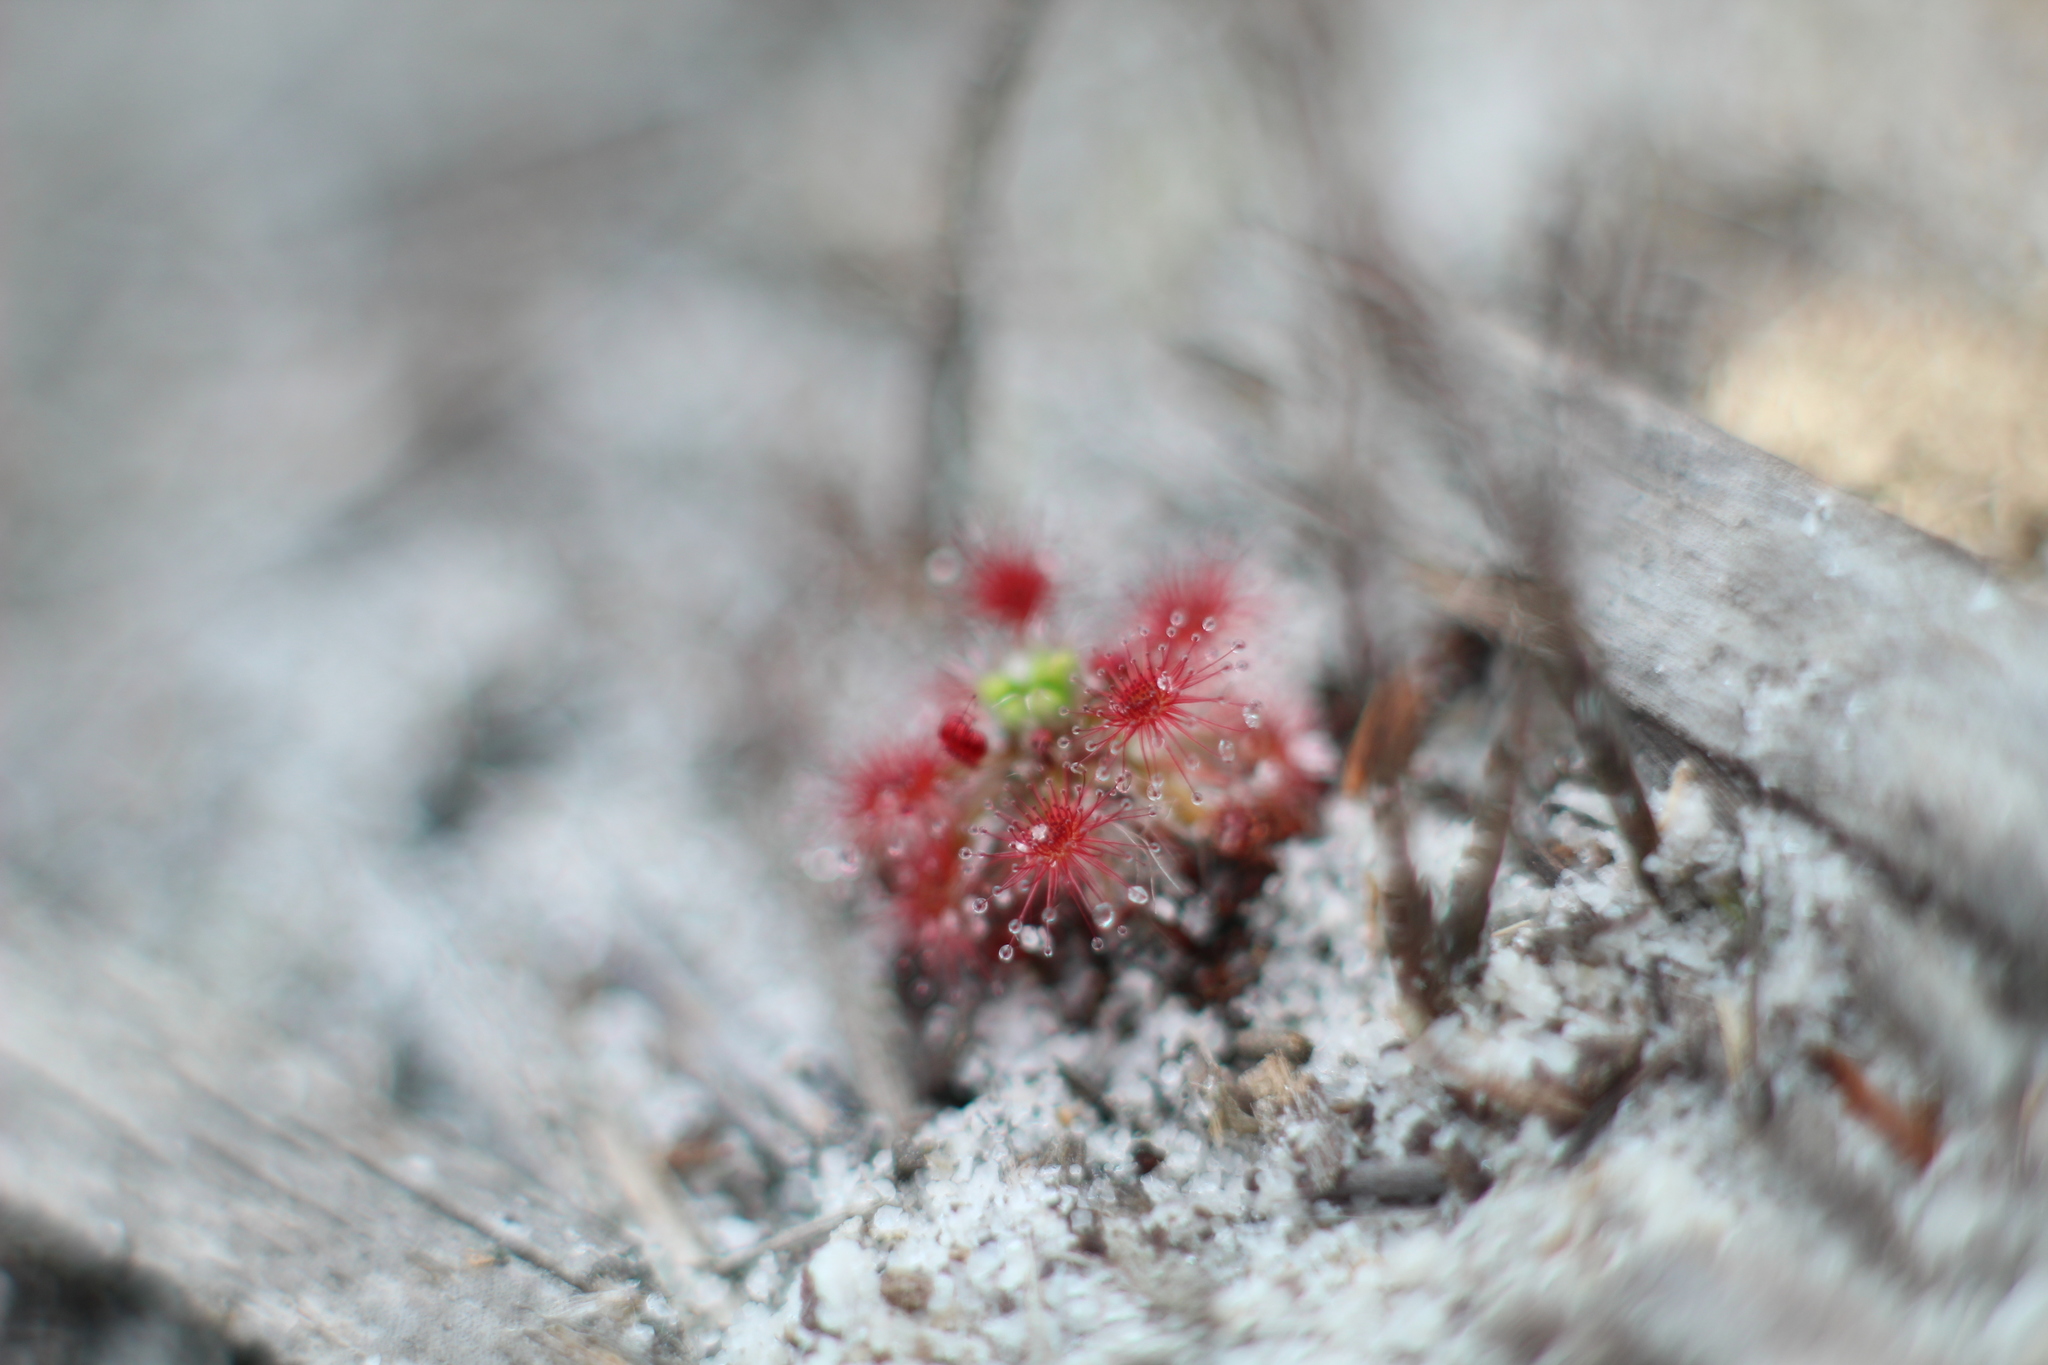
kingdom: Plantae
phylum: Tracheophyta
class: Magnoliopsida
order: Caryophyllales
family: Droseraceae
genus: Drosera
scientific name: Drosera paleacea
